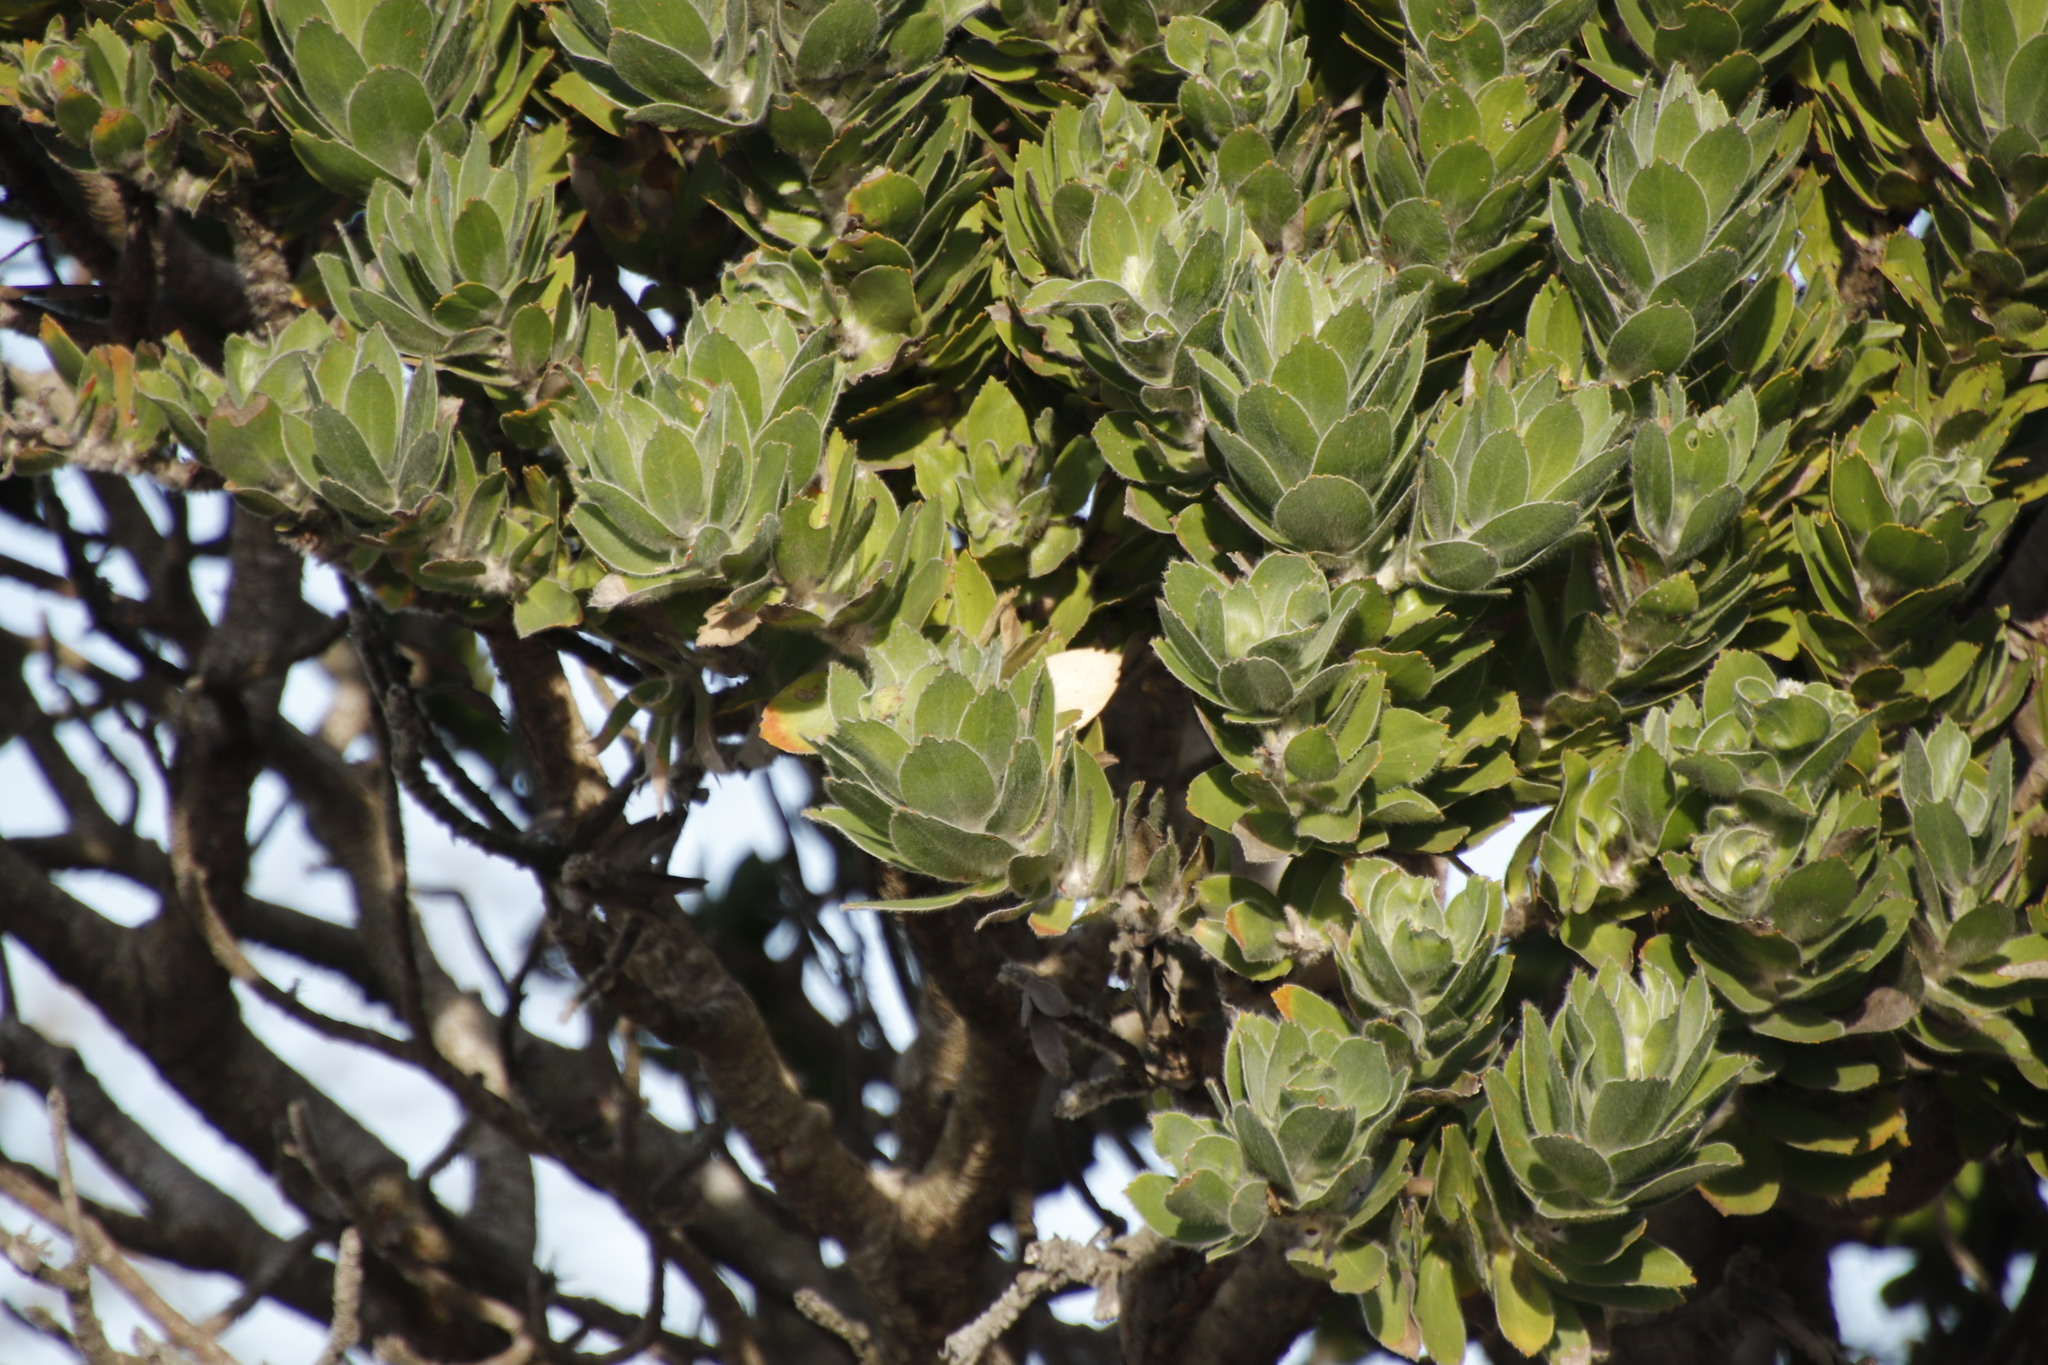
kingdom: Plantae
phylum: Tracheophyta
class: Magnoliopsida
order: Proteales
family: Proteaceae
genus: Leucospermum
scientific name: Leucospermum conocarpodendron
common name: Tree pincushion
